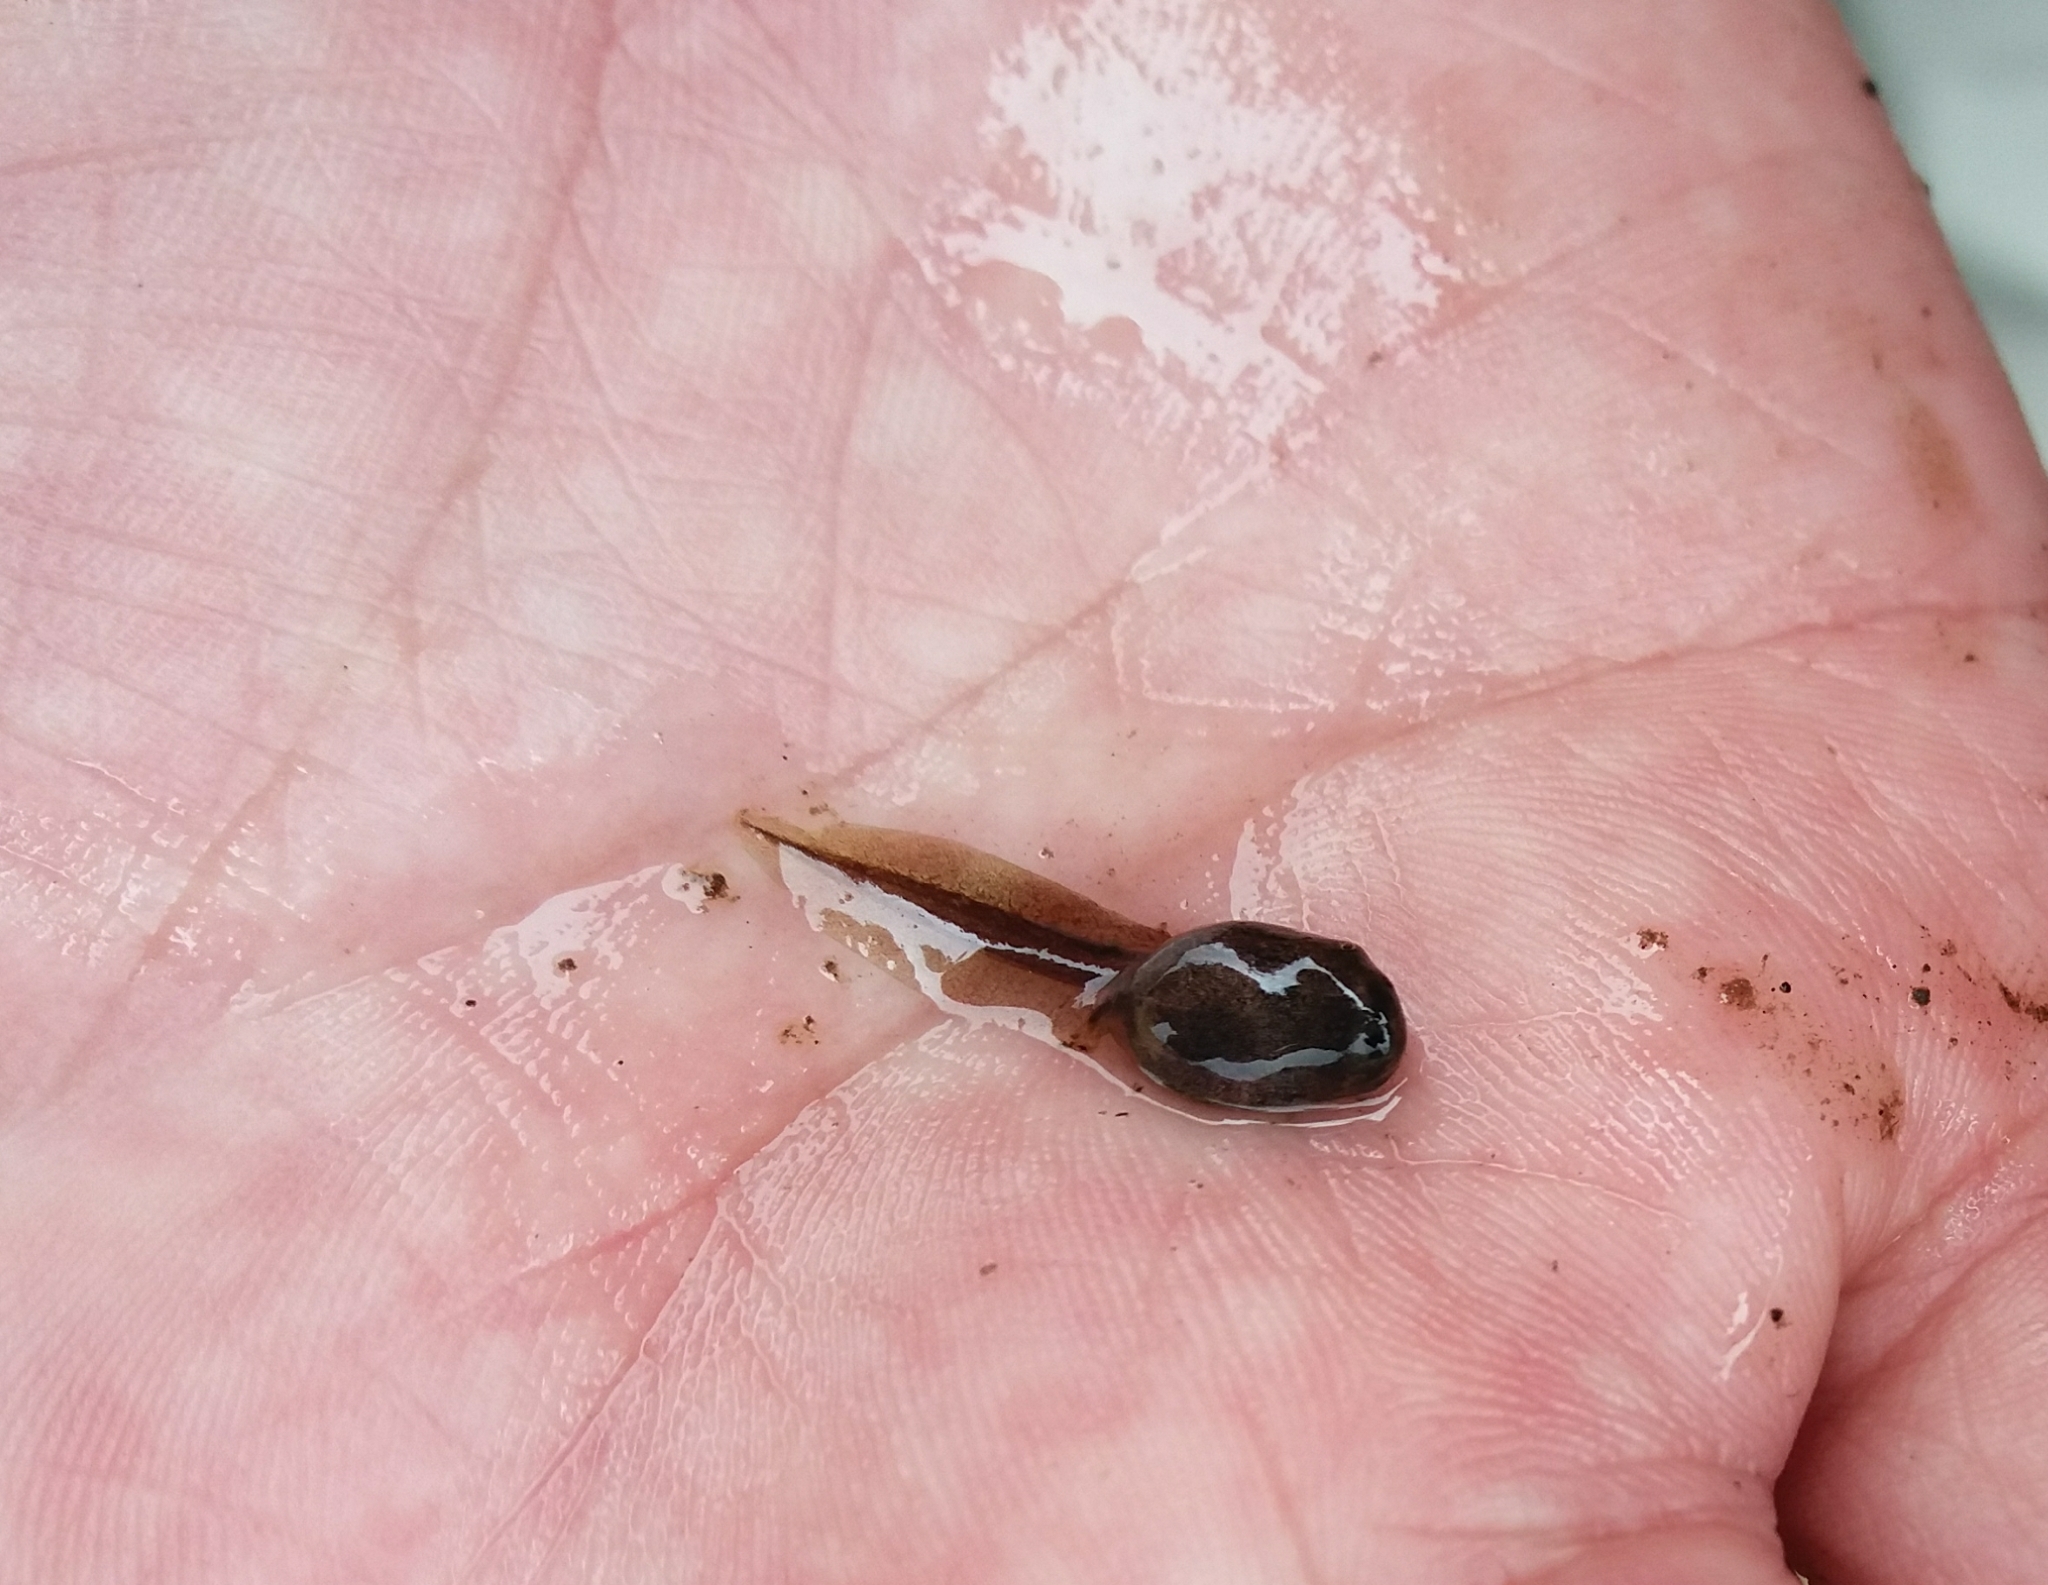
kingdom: Animalia
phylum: Chordata
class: Amphibia
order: Anura
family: Hylidae
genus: Dendropsophus
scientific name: Dendropsophus molitor
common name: Green dotted treefrog
